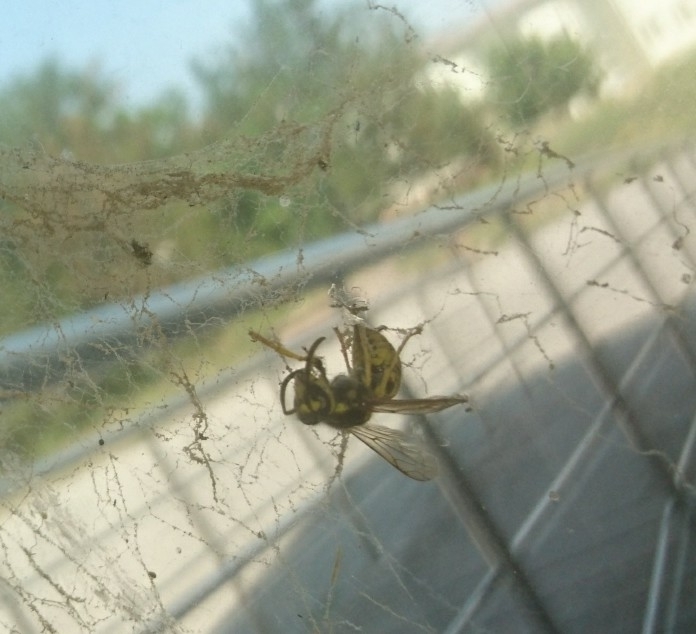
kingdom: Animalia
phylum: Arthropoda
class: Insecta
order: Hymenoptera
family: Vespidae
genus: Vespula
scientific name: Vespula germanica
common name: German wasp
